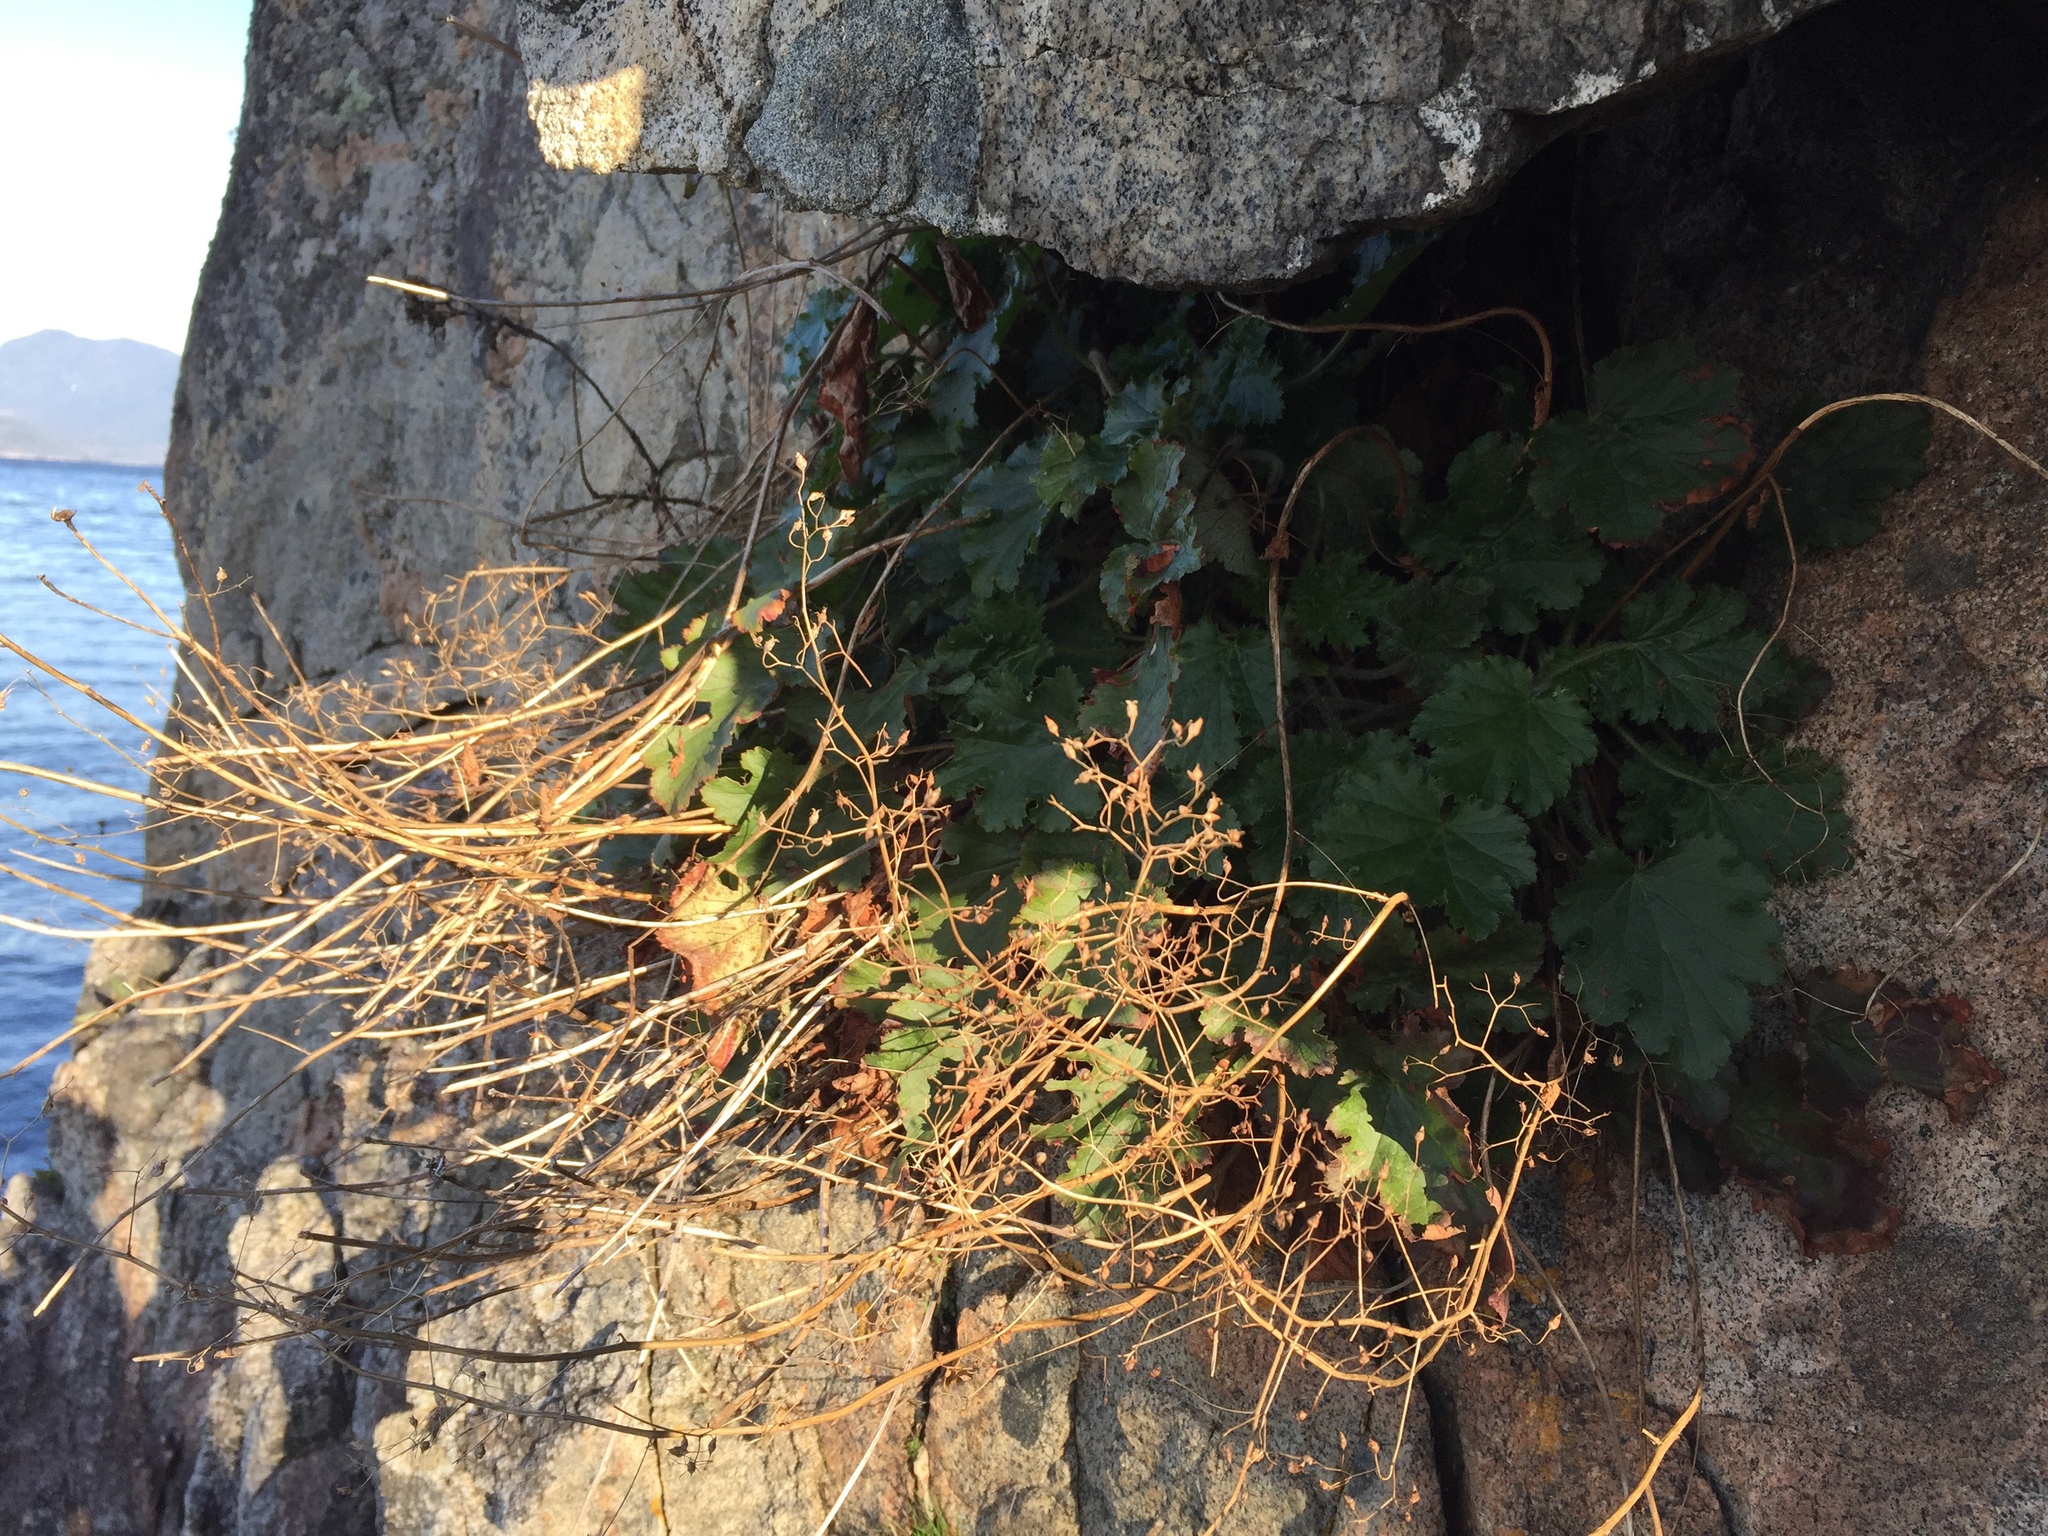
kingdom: Plantae
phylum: Tracheophyta
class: Magnoliopsida
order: Saxifragales
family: Saxifragaceae
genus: Heuchera
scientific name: Heuchera micrantha
